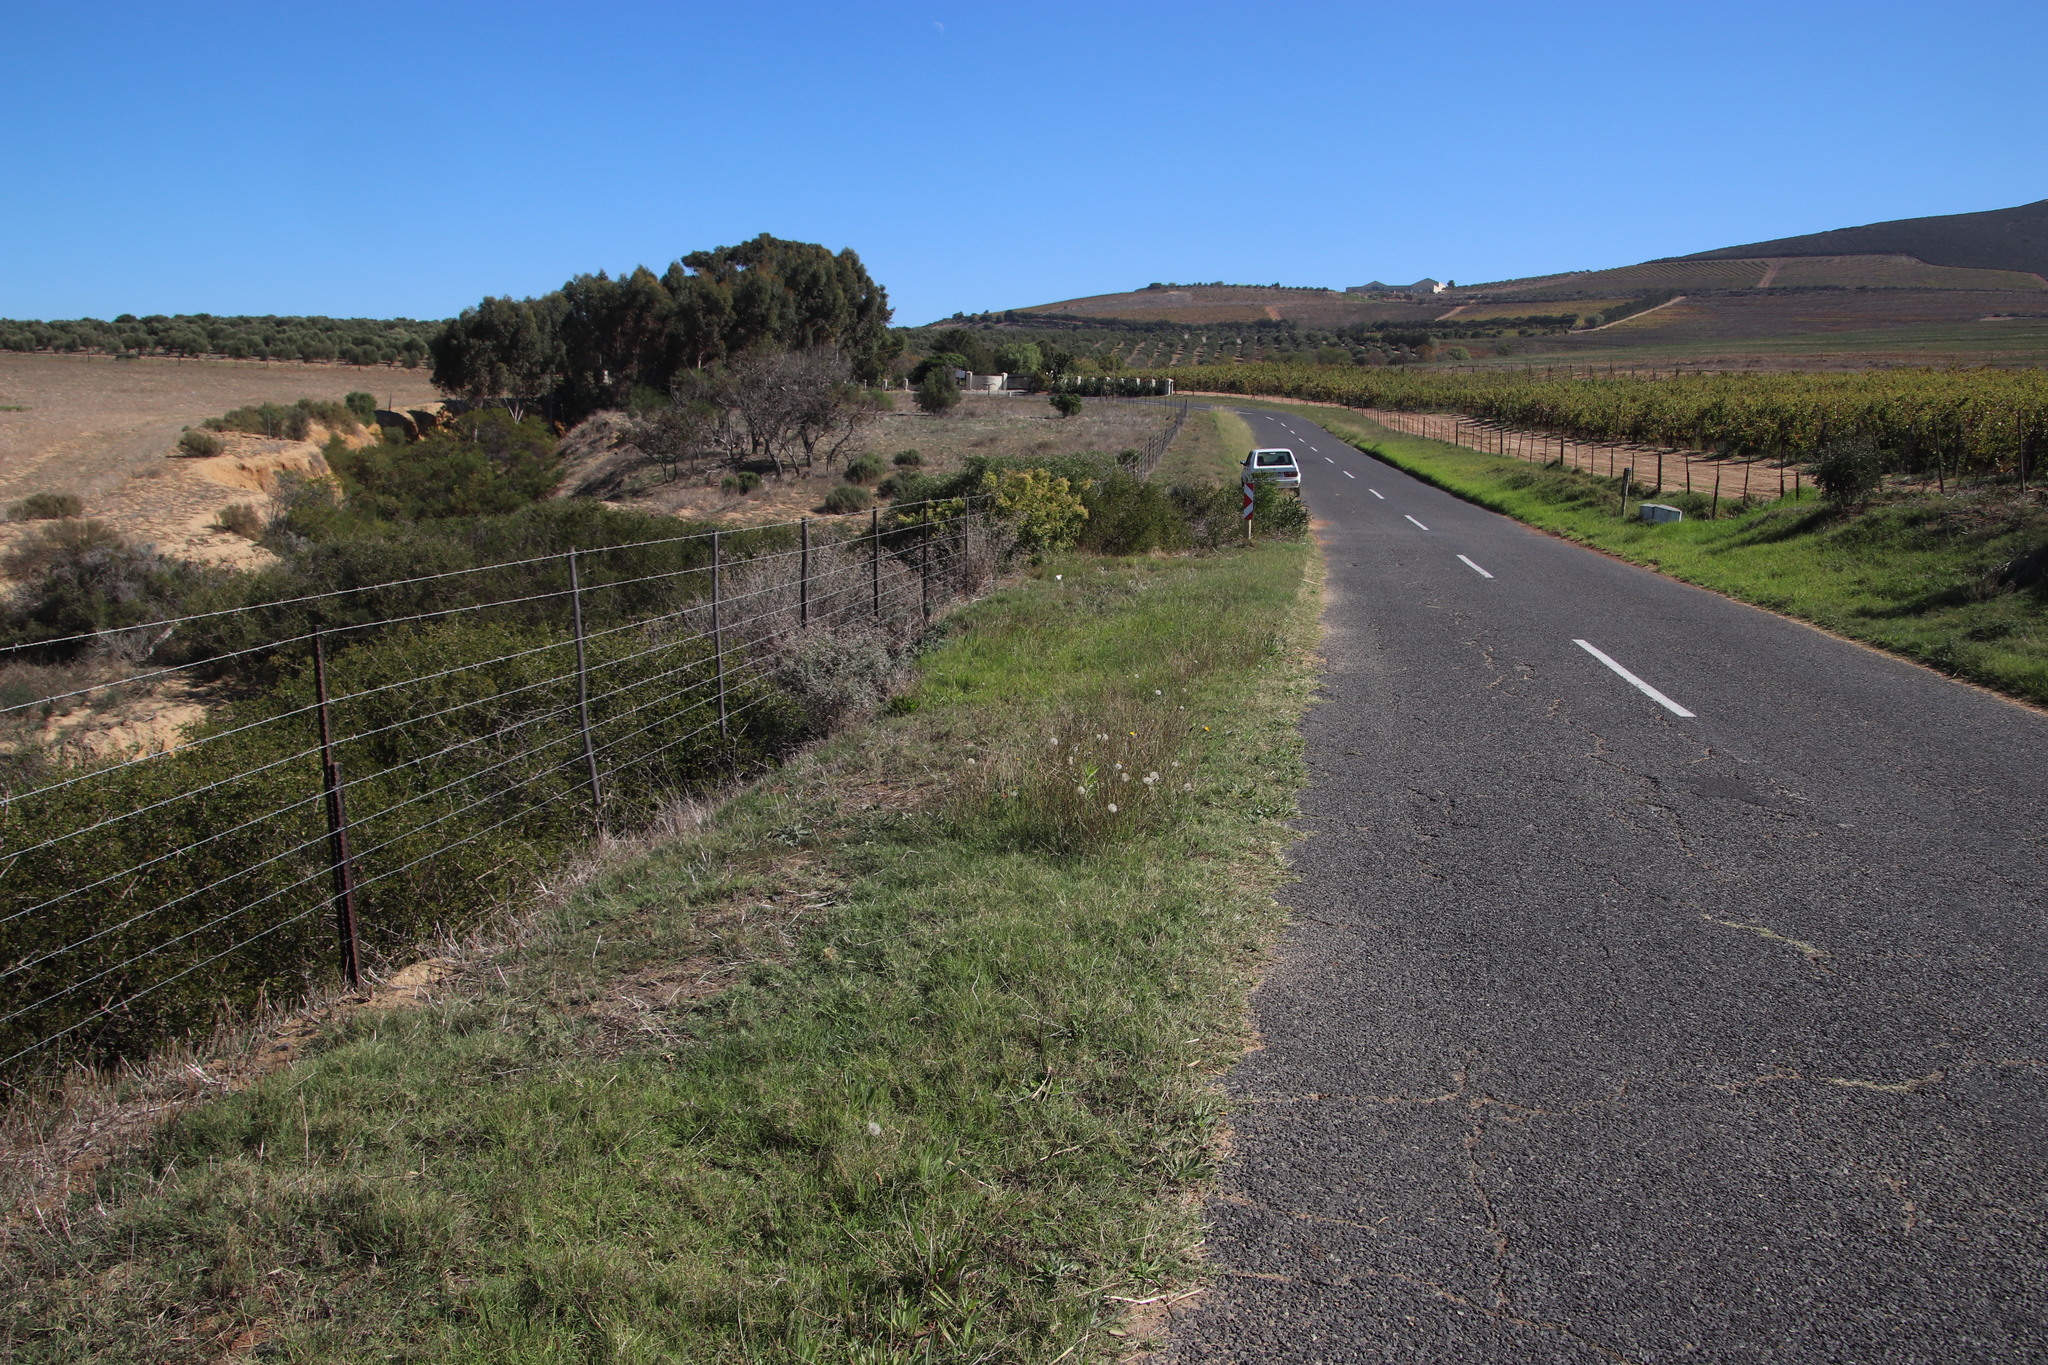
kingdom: Plantae
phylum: Tracheophyta
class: Magnoliopsida
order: Asterales
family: Asteraceae
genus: Hypochaeris
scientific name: Hypochaeris radicata
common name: Flatweed
